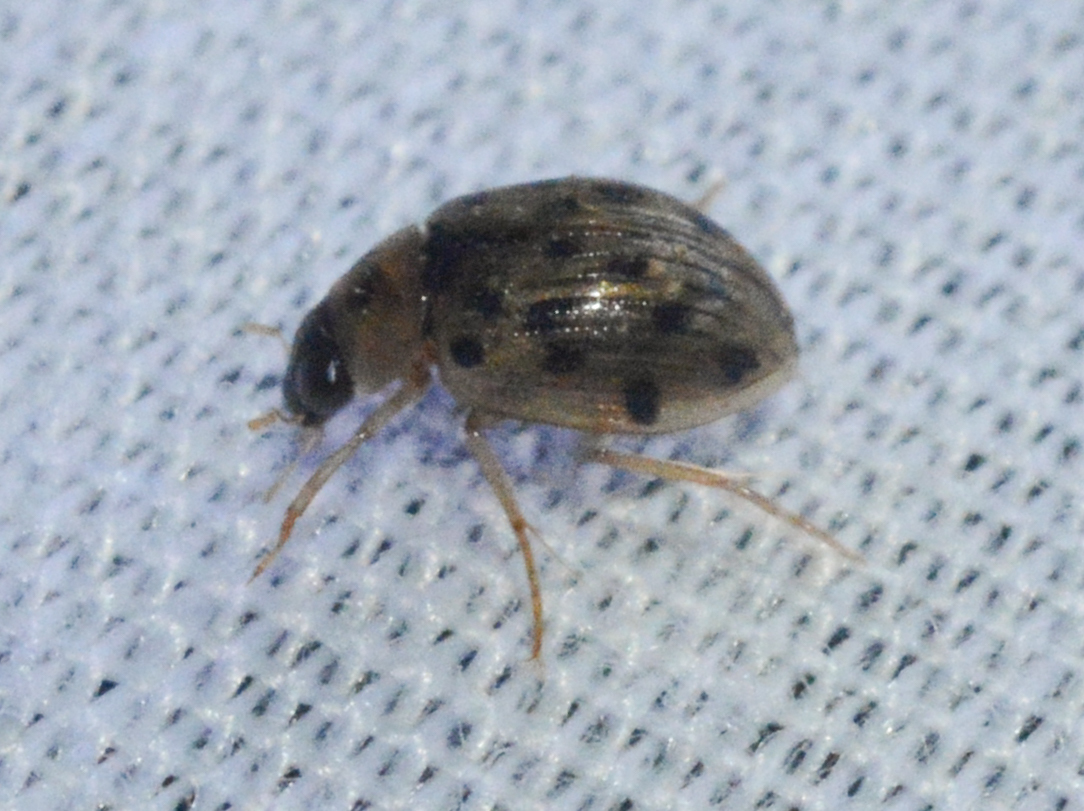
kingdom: Animalia
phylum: Arthropoda
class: Insecta
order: Coleoptera
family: Hydrophilidae
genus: Berosus
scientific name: Berosus pantherinus
